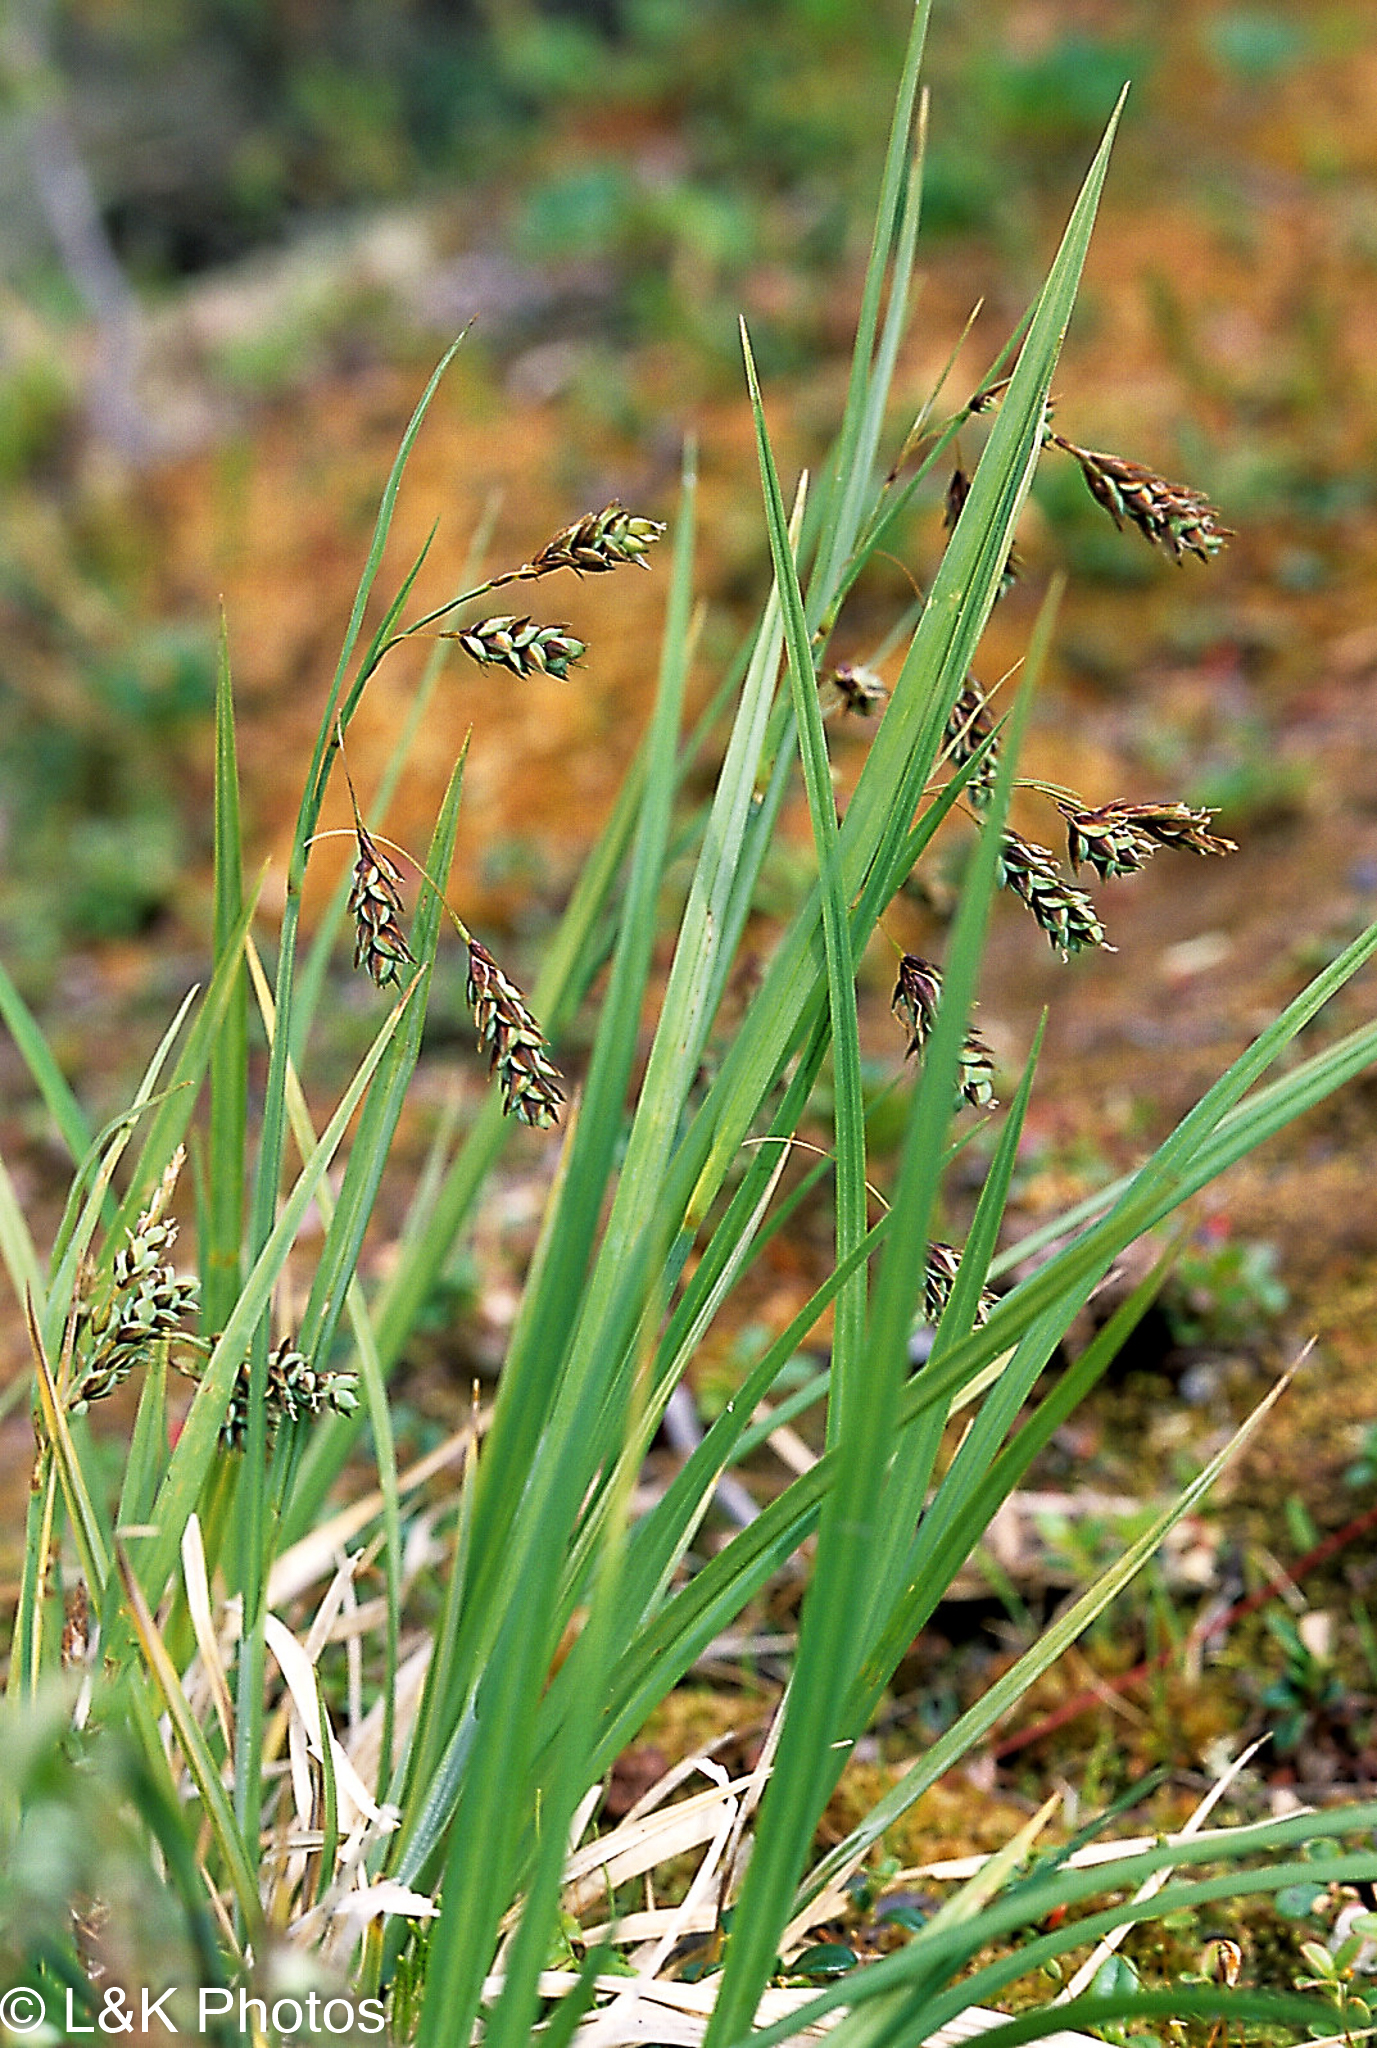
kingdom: Plantae
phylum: Tracheophyta
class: Liliopsida
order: Poales
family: Cyperaceae
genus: Carex
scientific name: Carex magellanica
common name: Bog sedge
